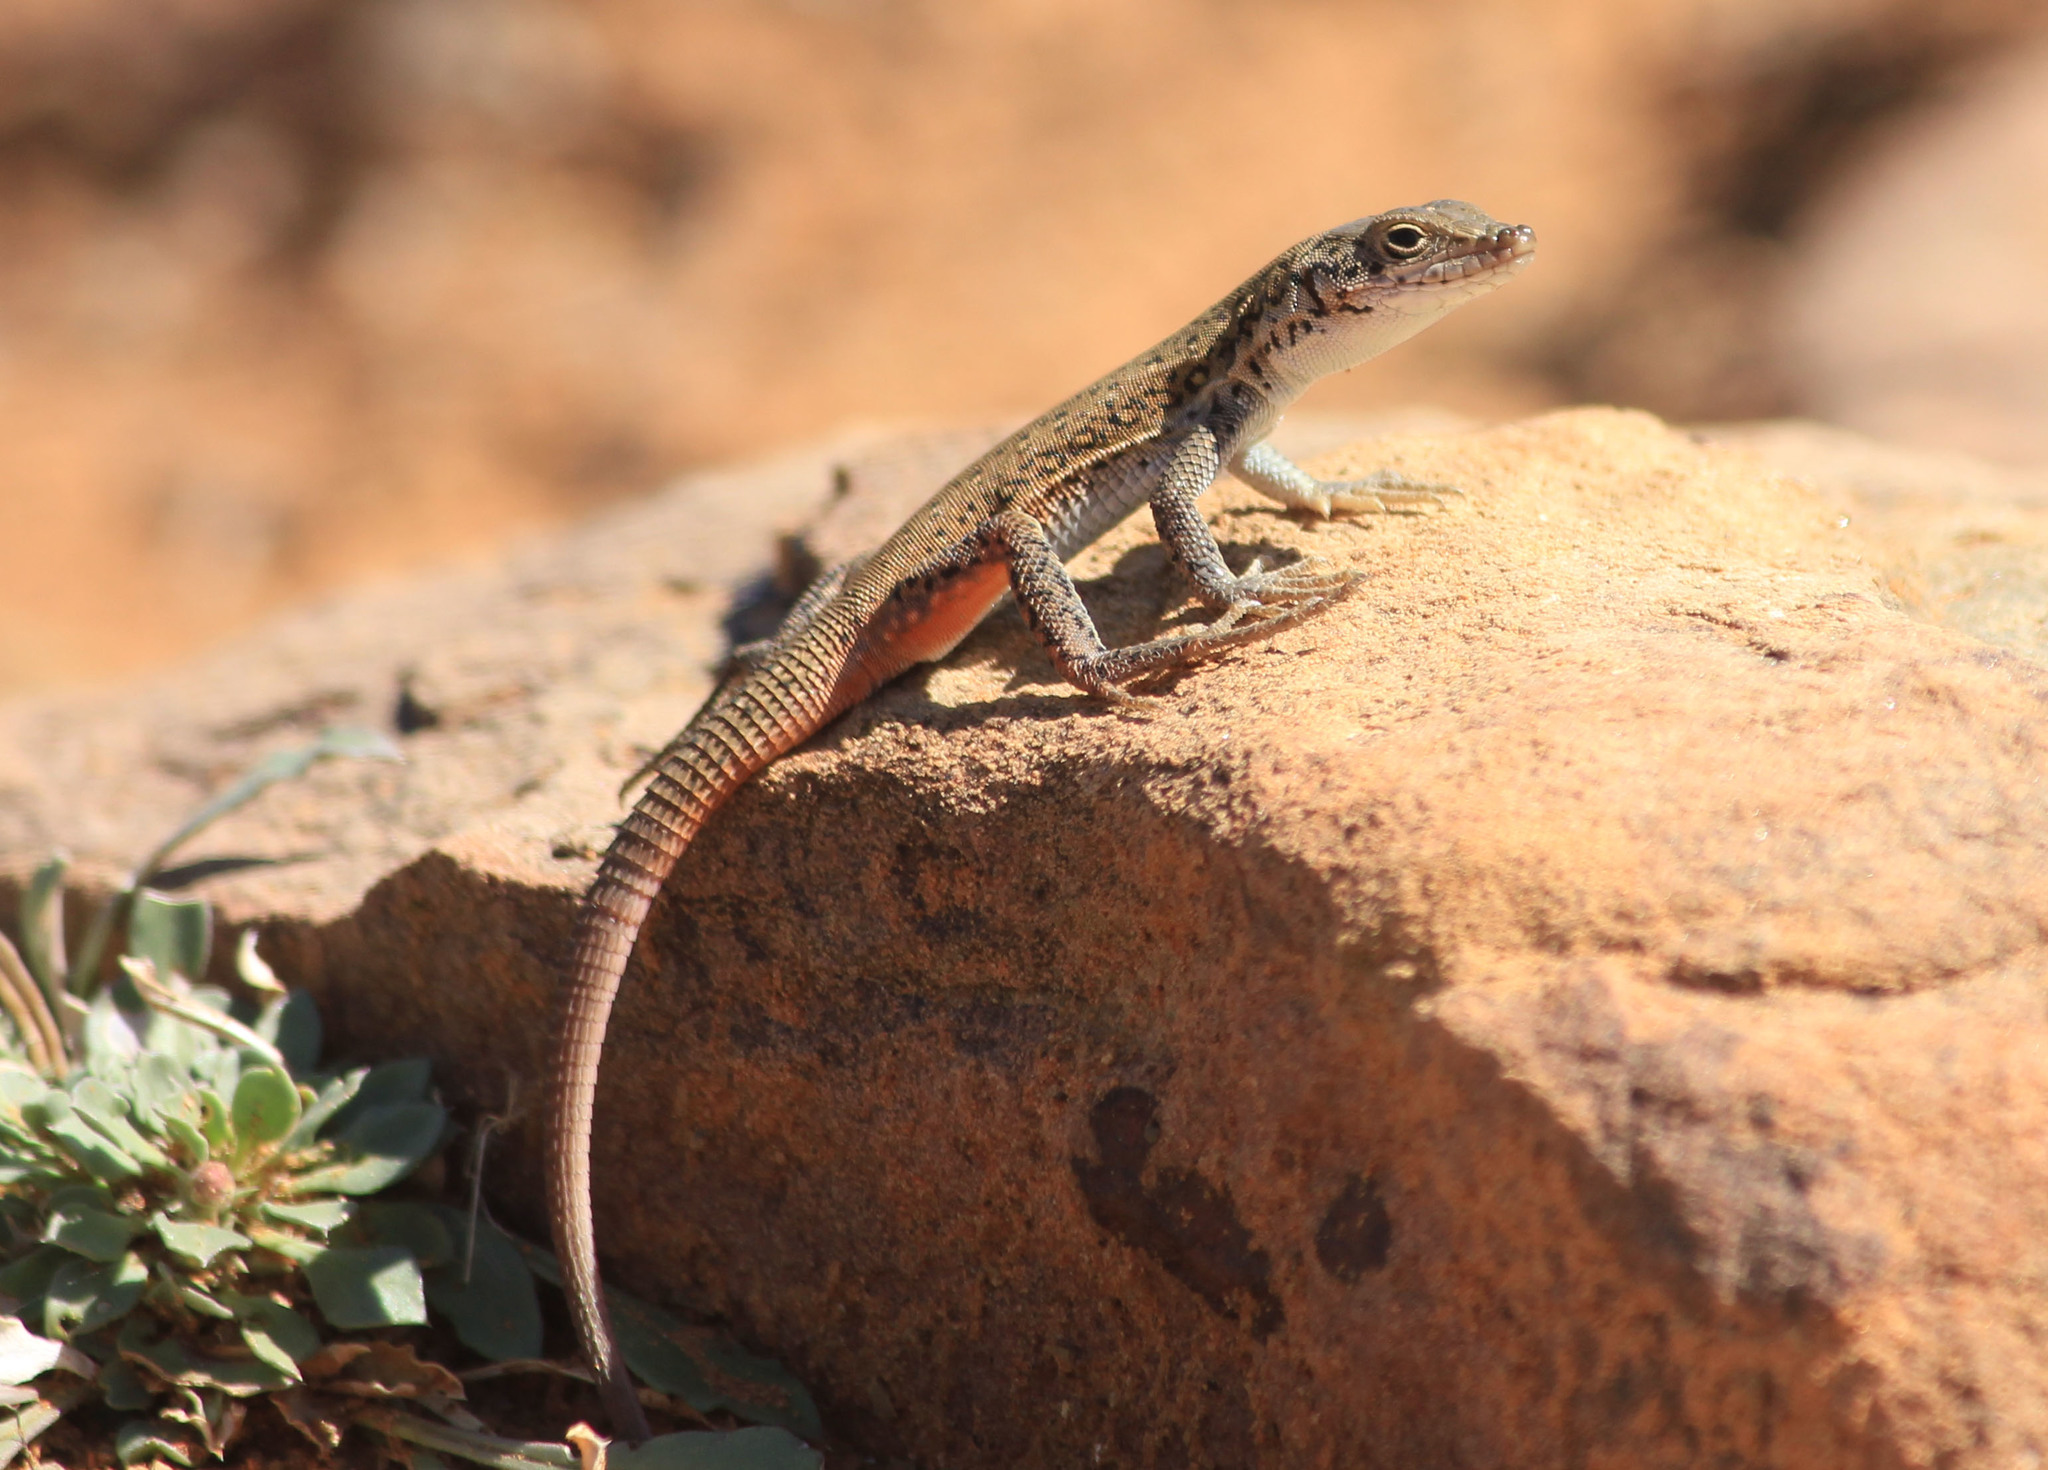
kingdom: Animalia
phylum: Chordata
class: Squamata
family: Lacertidae
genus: Pedioplanis
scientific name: Pedioplanis lineoocellata
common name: Spotted sand lizard
